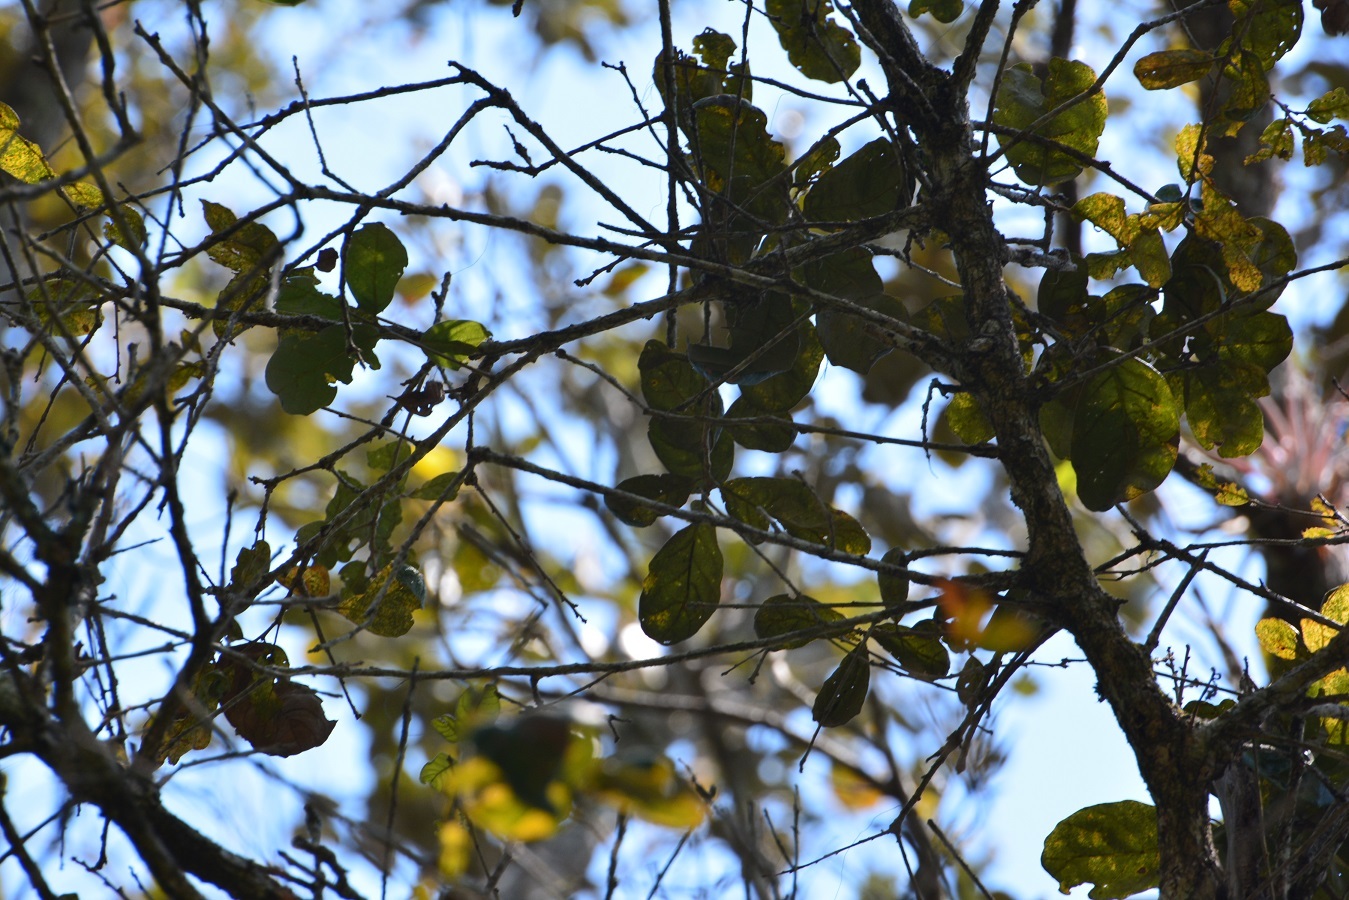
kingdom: Plantae
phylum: Tracheophyta
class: Magnoliopsida
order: Fagales
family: Fagaceae
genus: Quercus
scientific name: Quercus oleoides
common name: White oak
